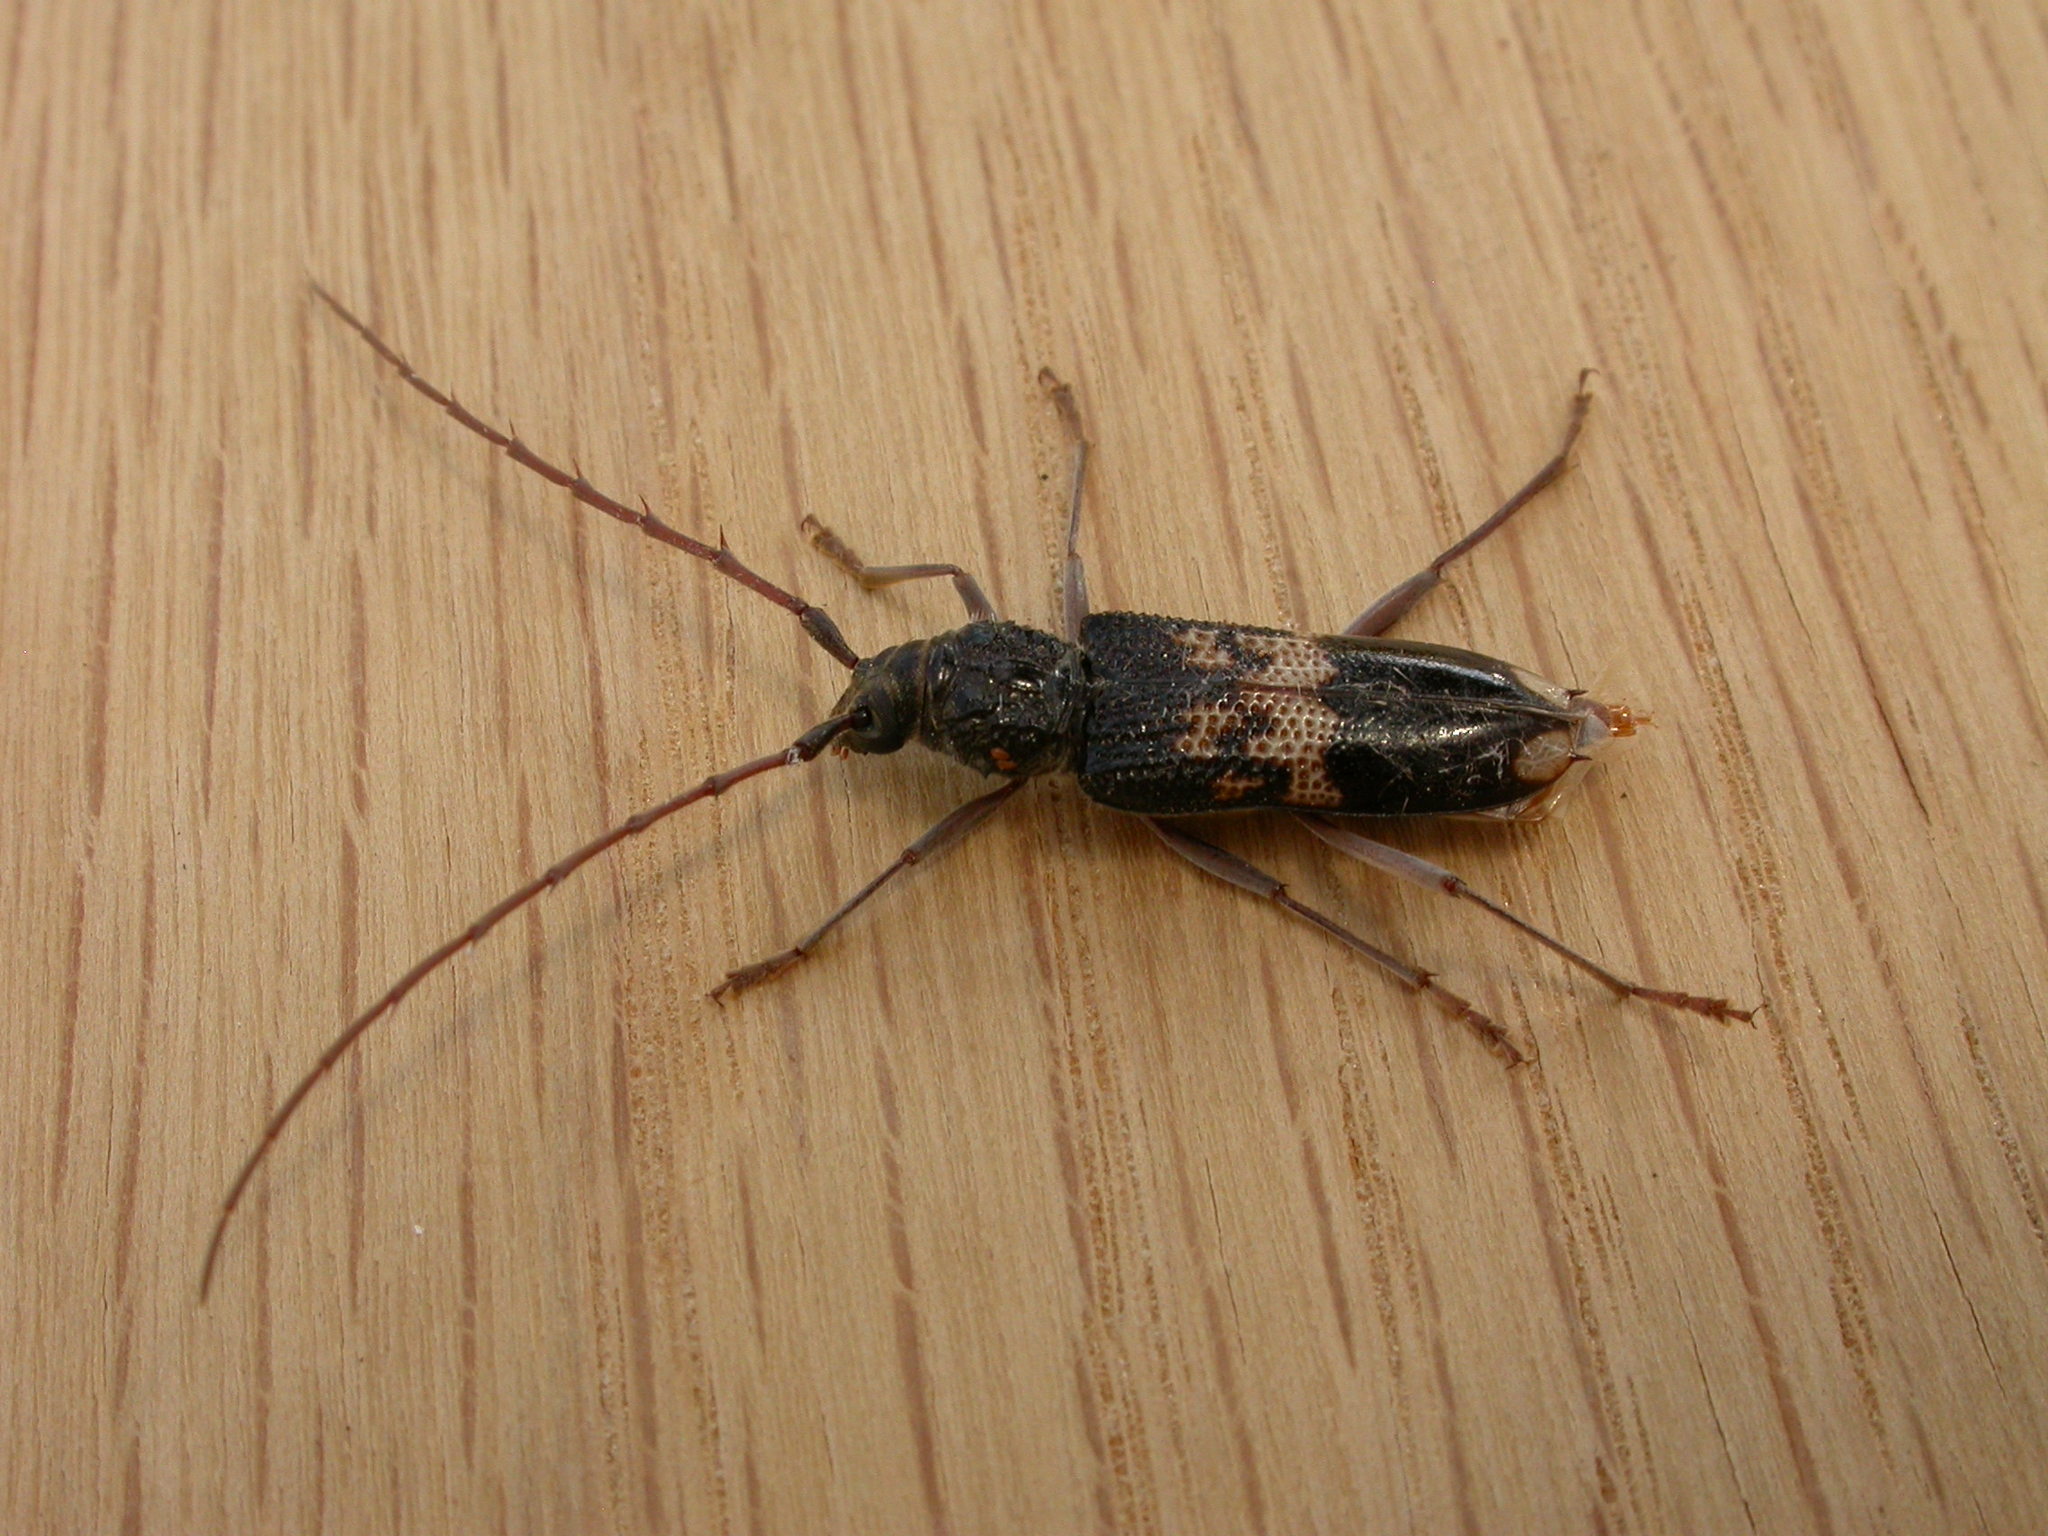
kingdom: Animalia
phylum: Arthropoda
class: Insecta
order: Coleoptera
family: Cerambycidae
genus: Phoracantha
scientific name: Phoracantha semipunctata
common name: Eucalyptus longhorn borer
